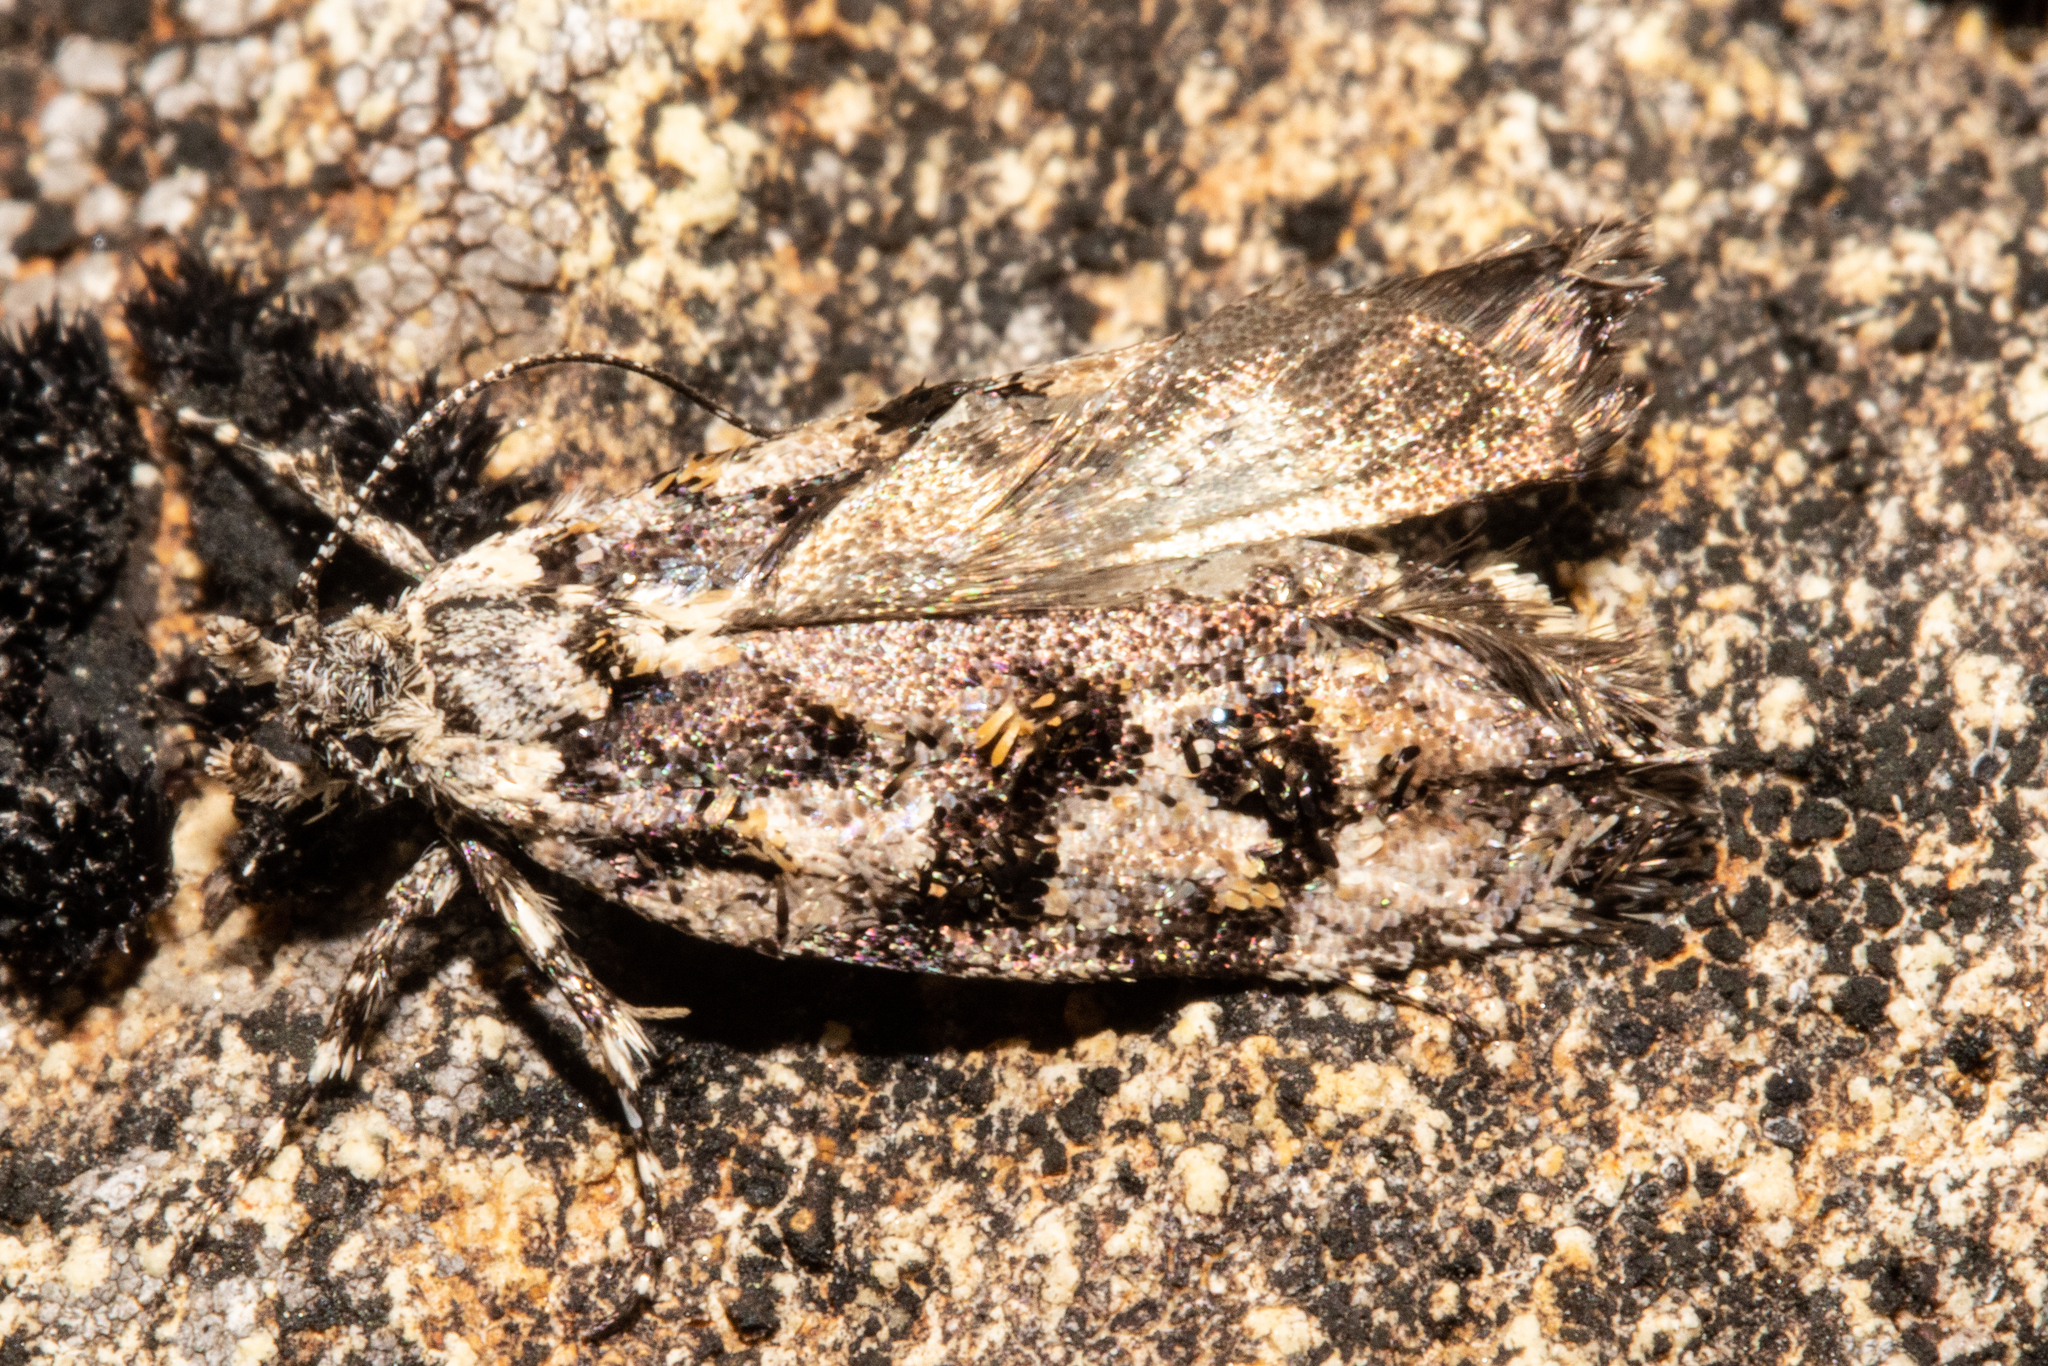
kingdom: Animalia
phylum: Arthropoda
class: Insecta
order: Lepidoptera
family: Oecophoridae
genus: Izatha
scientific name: Izatha florida
